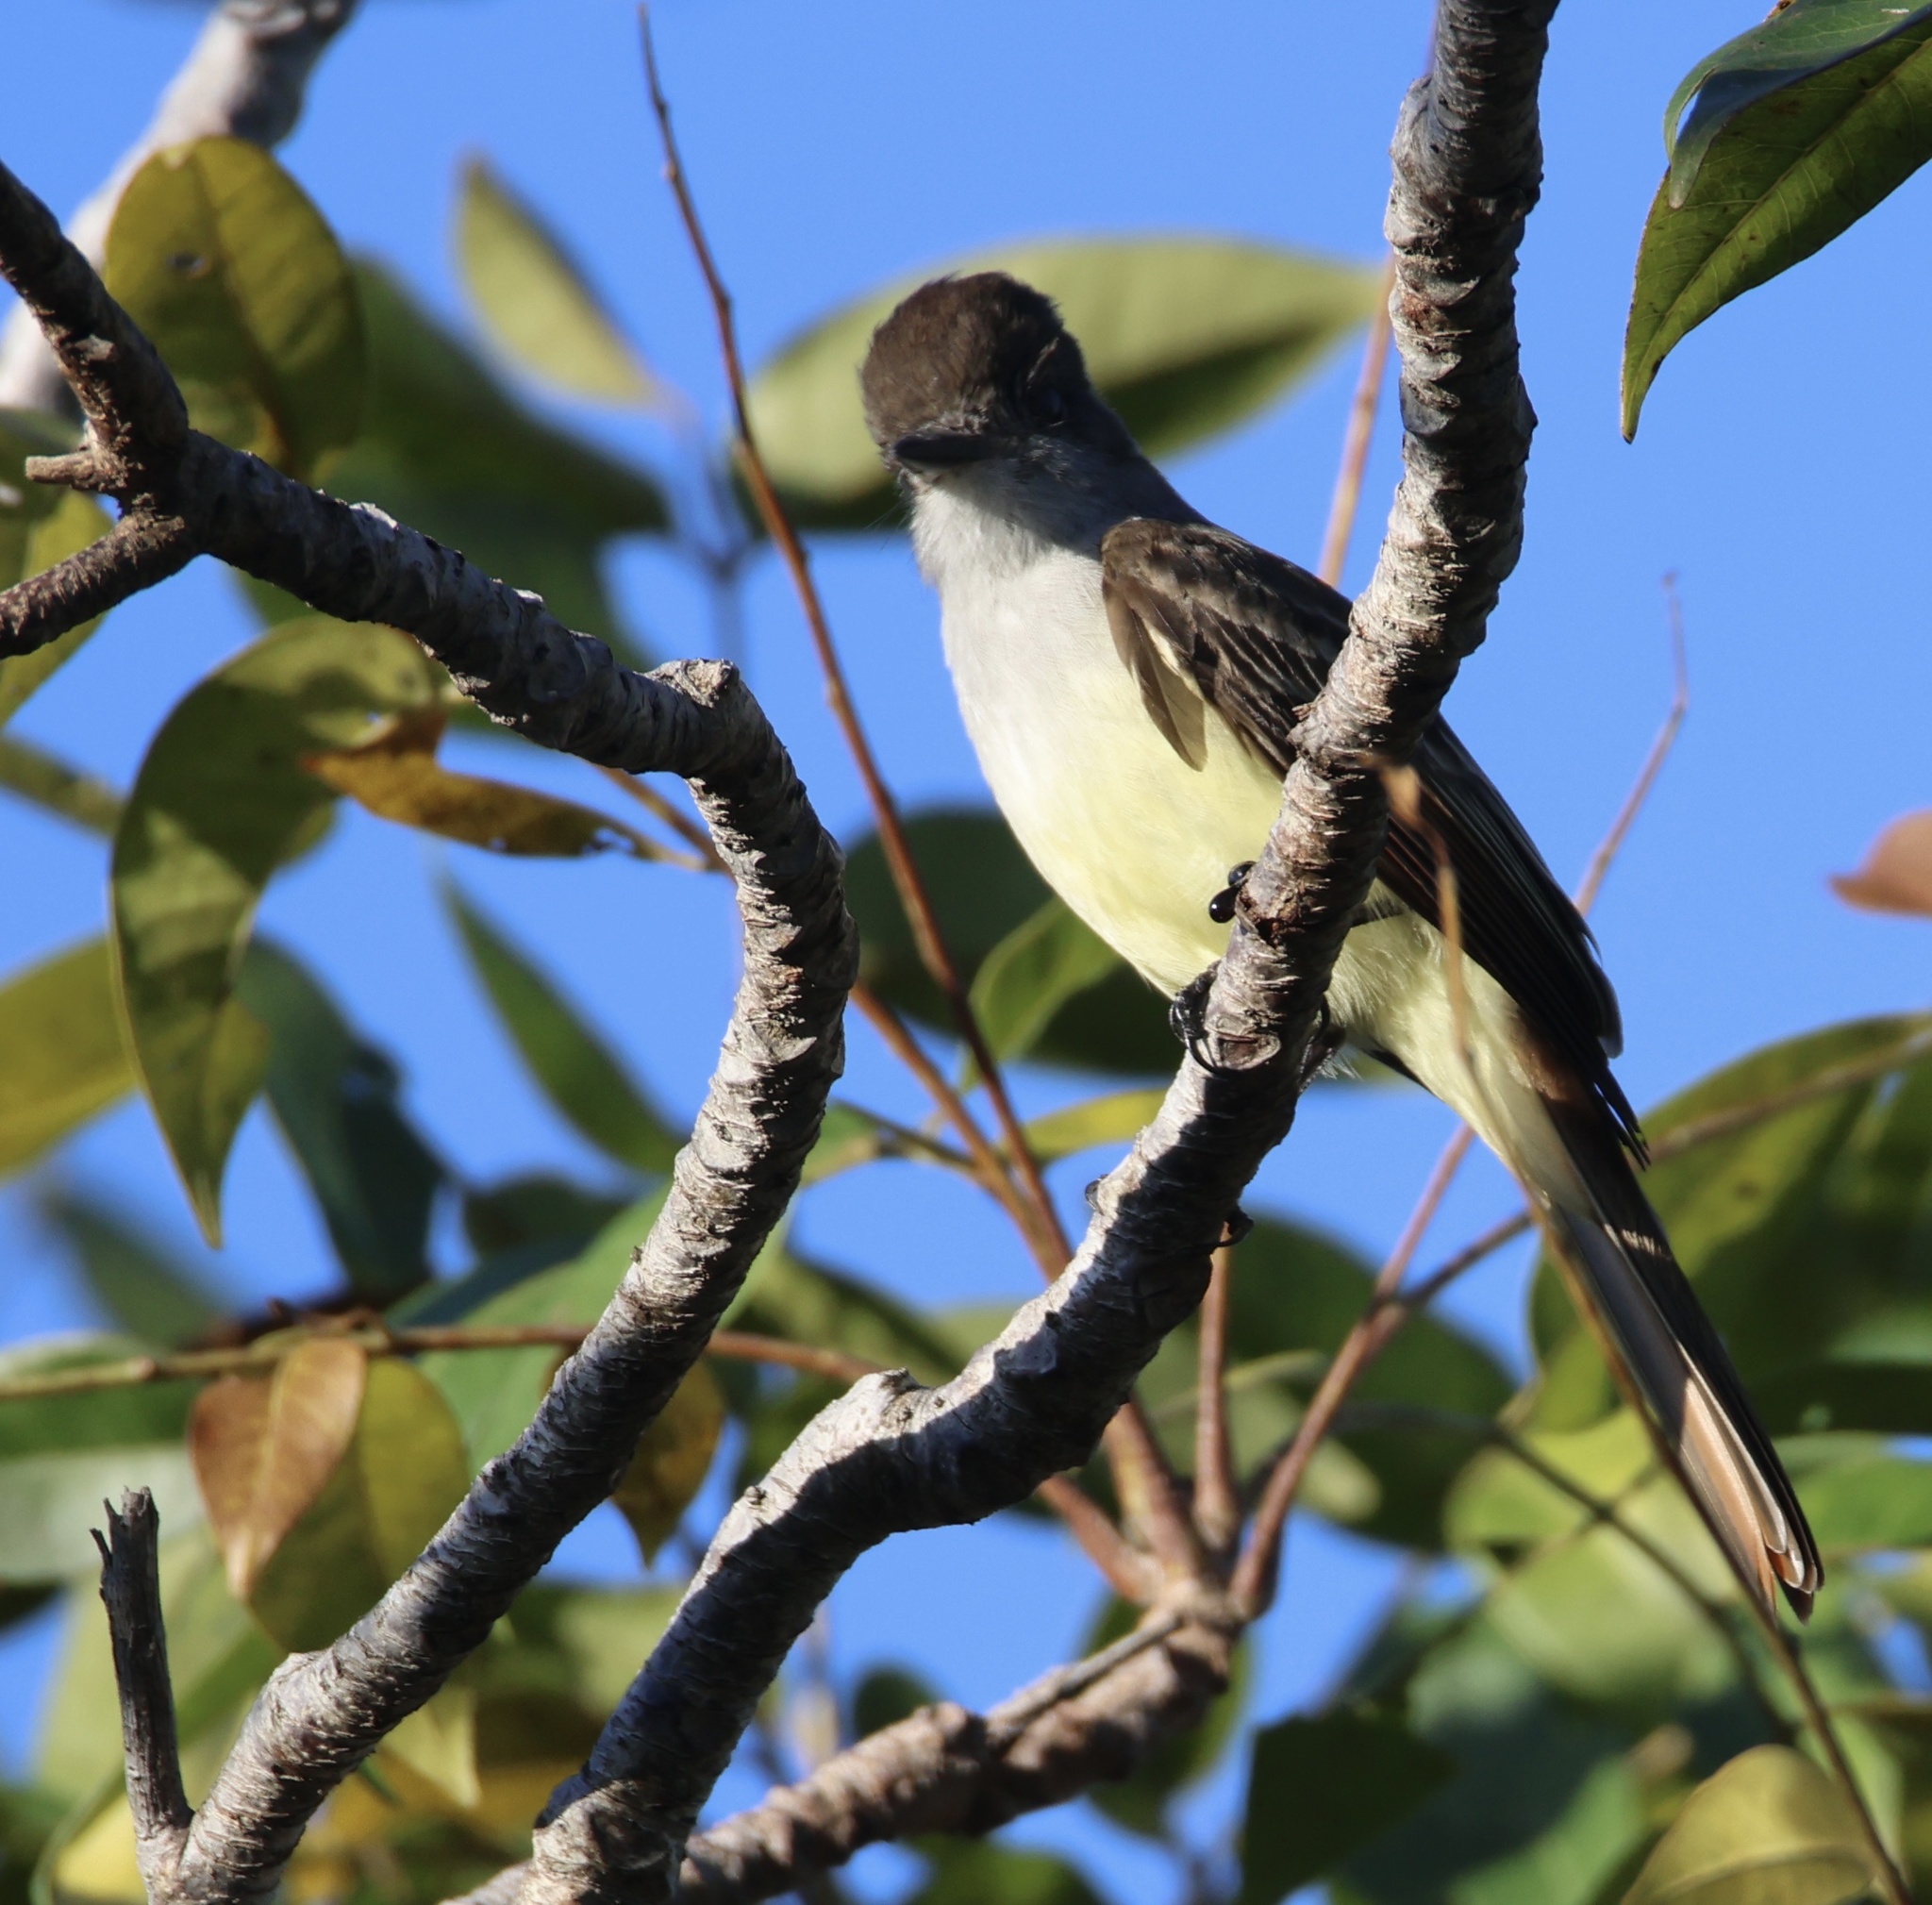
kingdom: Animalia
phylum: Chordata
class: Aves
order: Passeriformes
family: Tyrannidae
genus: Myiarchus
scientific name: Myiarchus stolidus
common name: Stolid flycatcher
